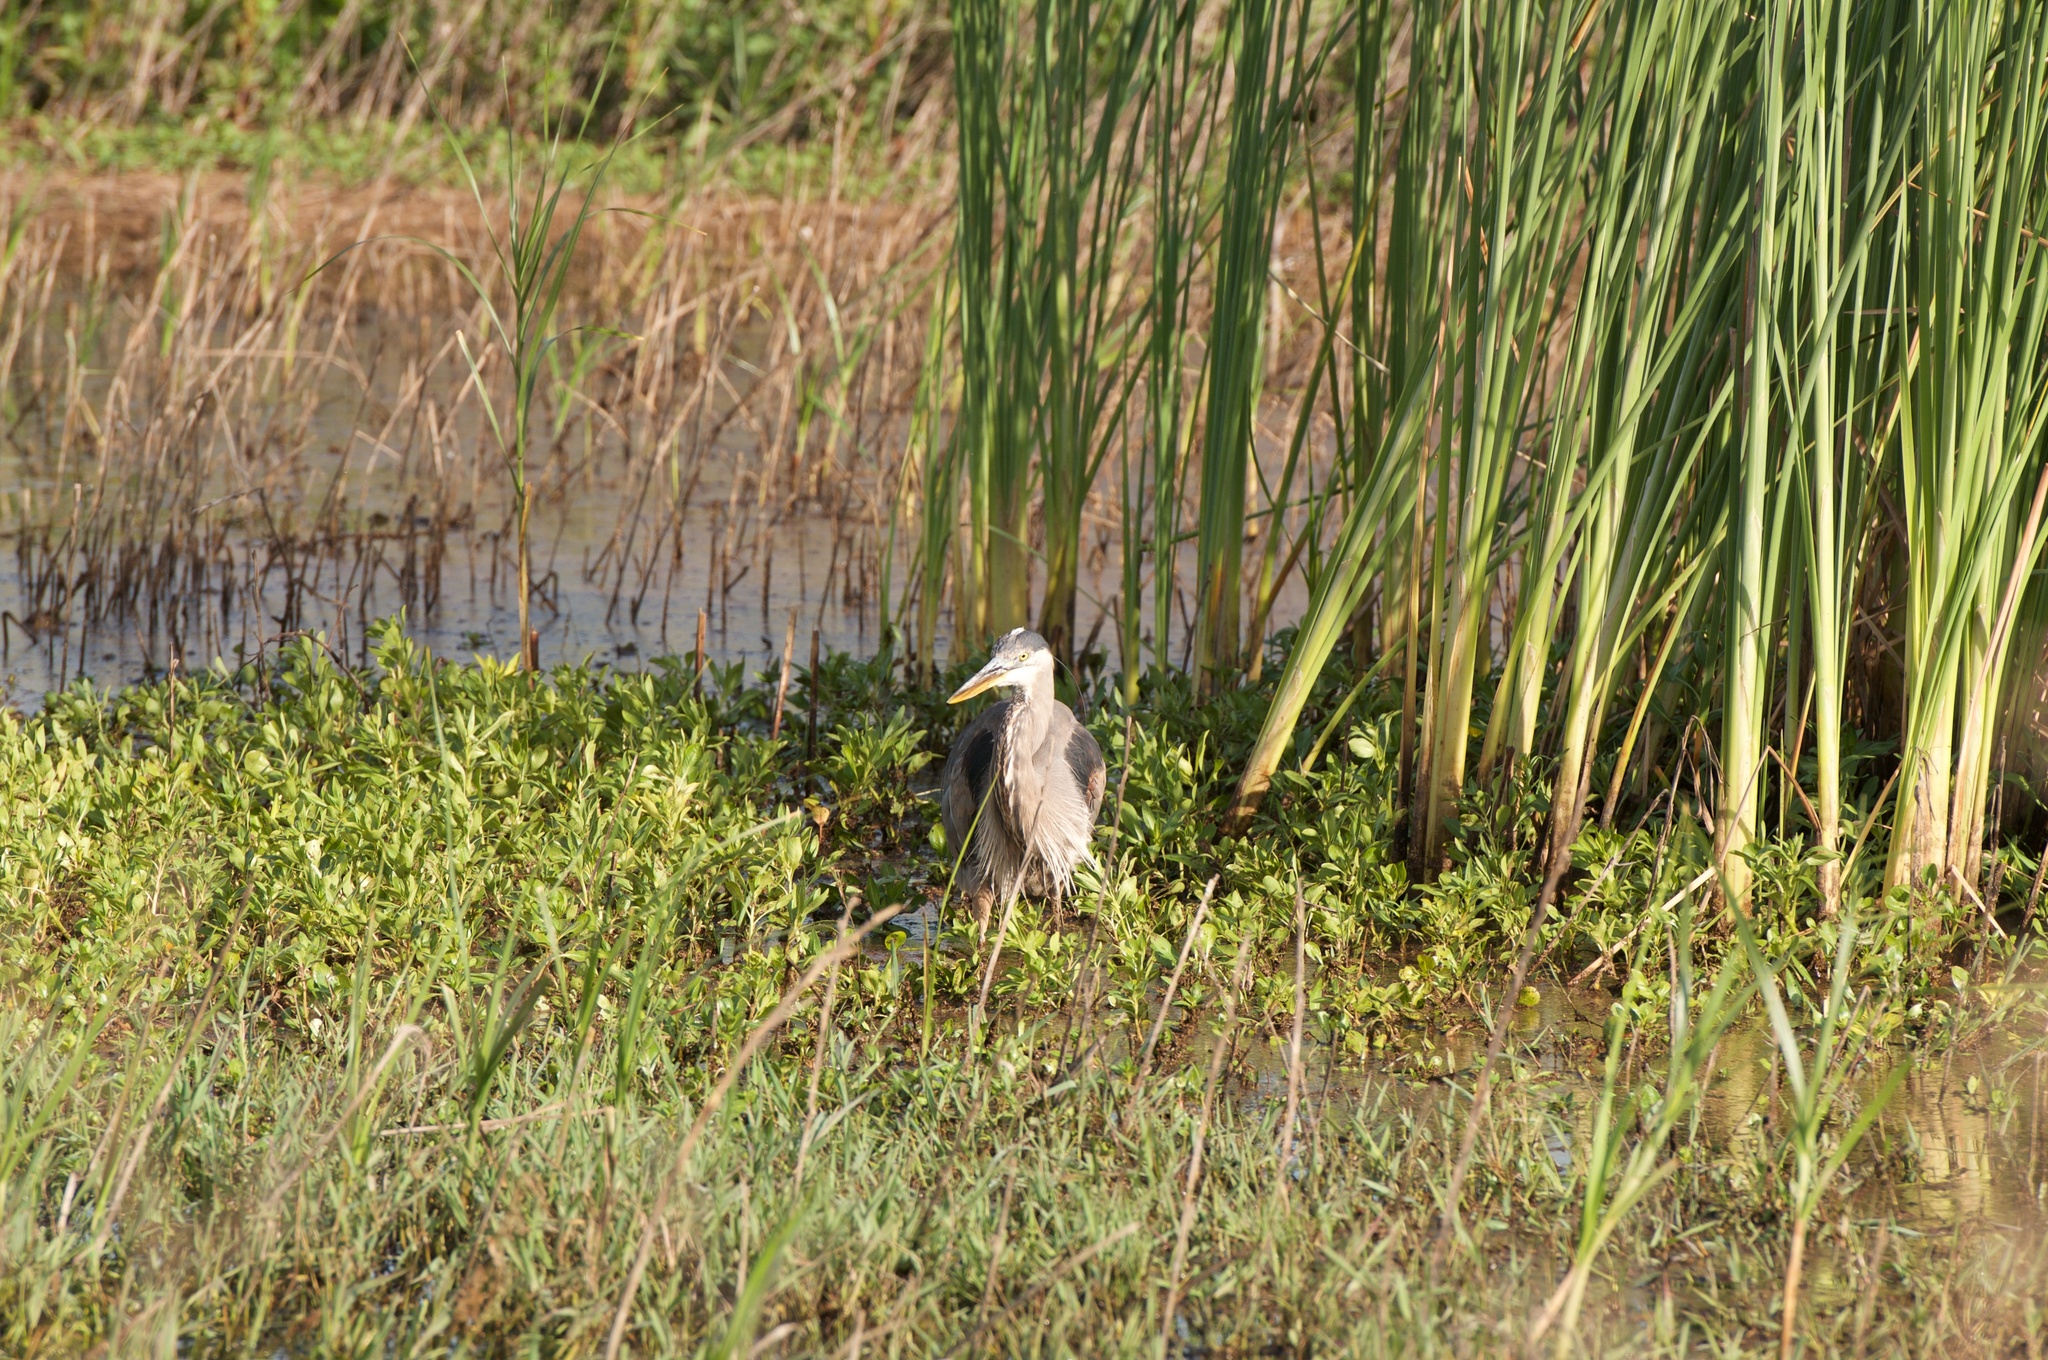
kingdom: Animalia
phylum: Chordata
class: Aves
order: Pelecaniformes
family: Ardeidae
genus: Ardea
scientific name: Ardea herodias
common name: Great blue heron
